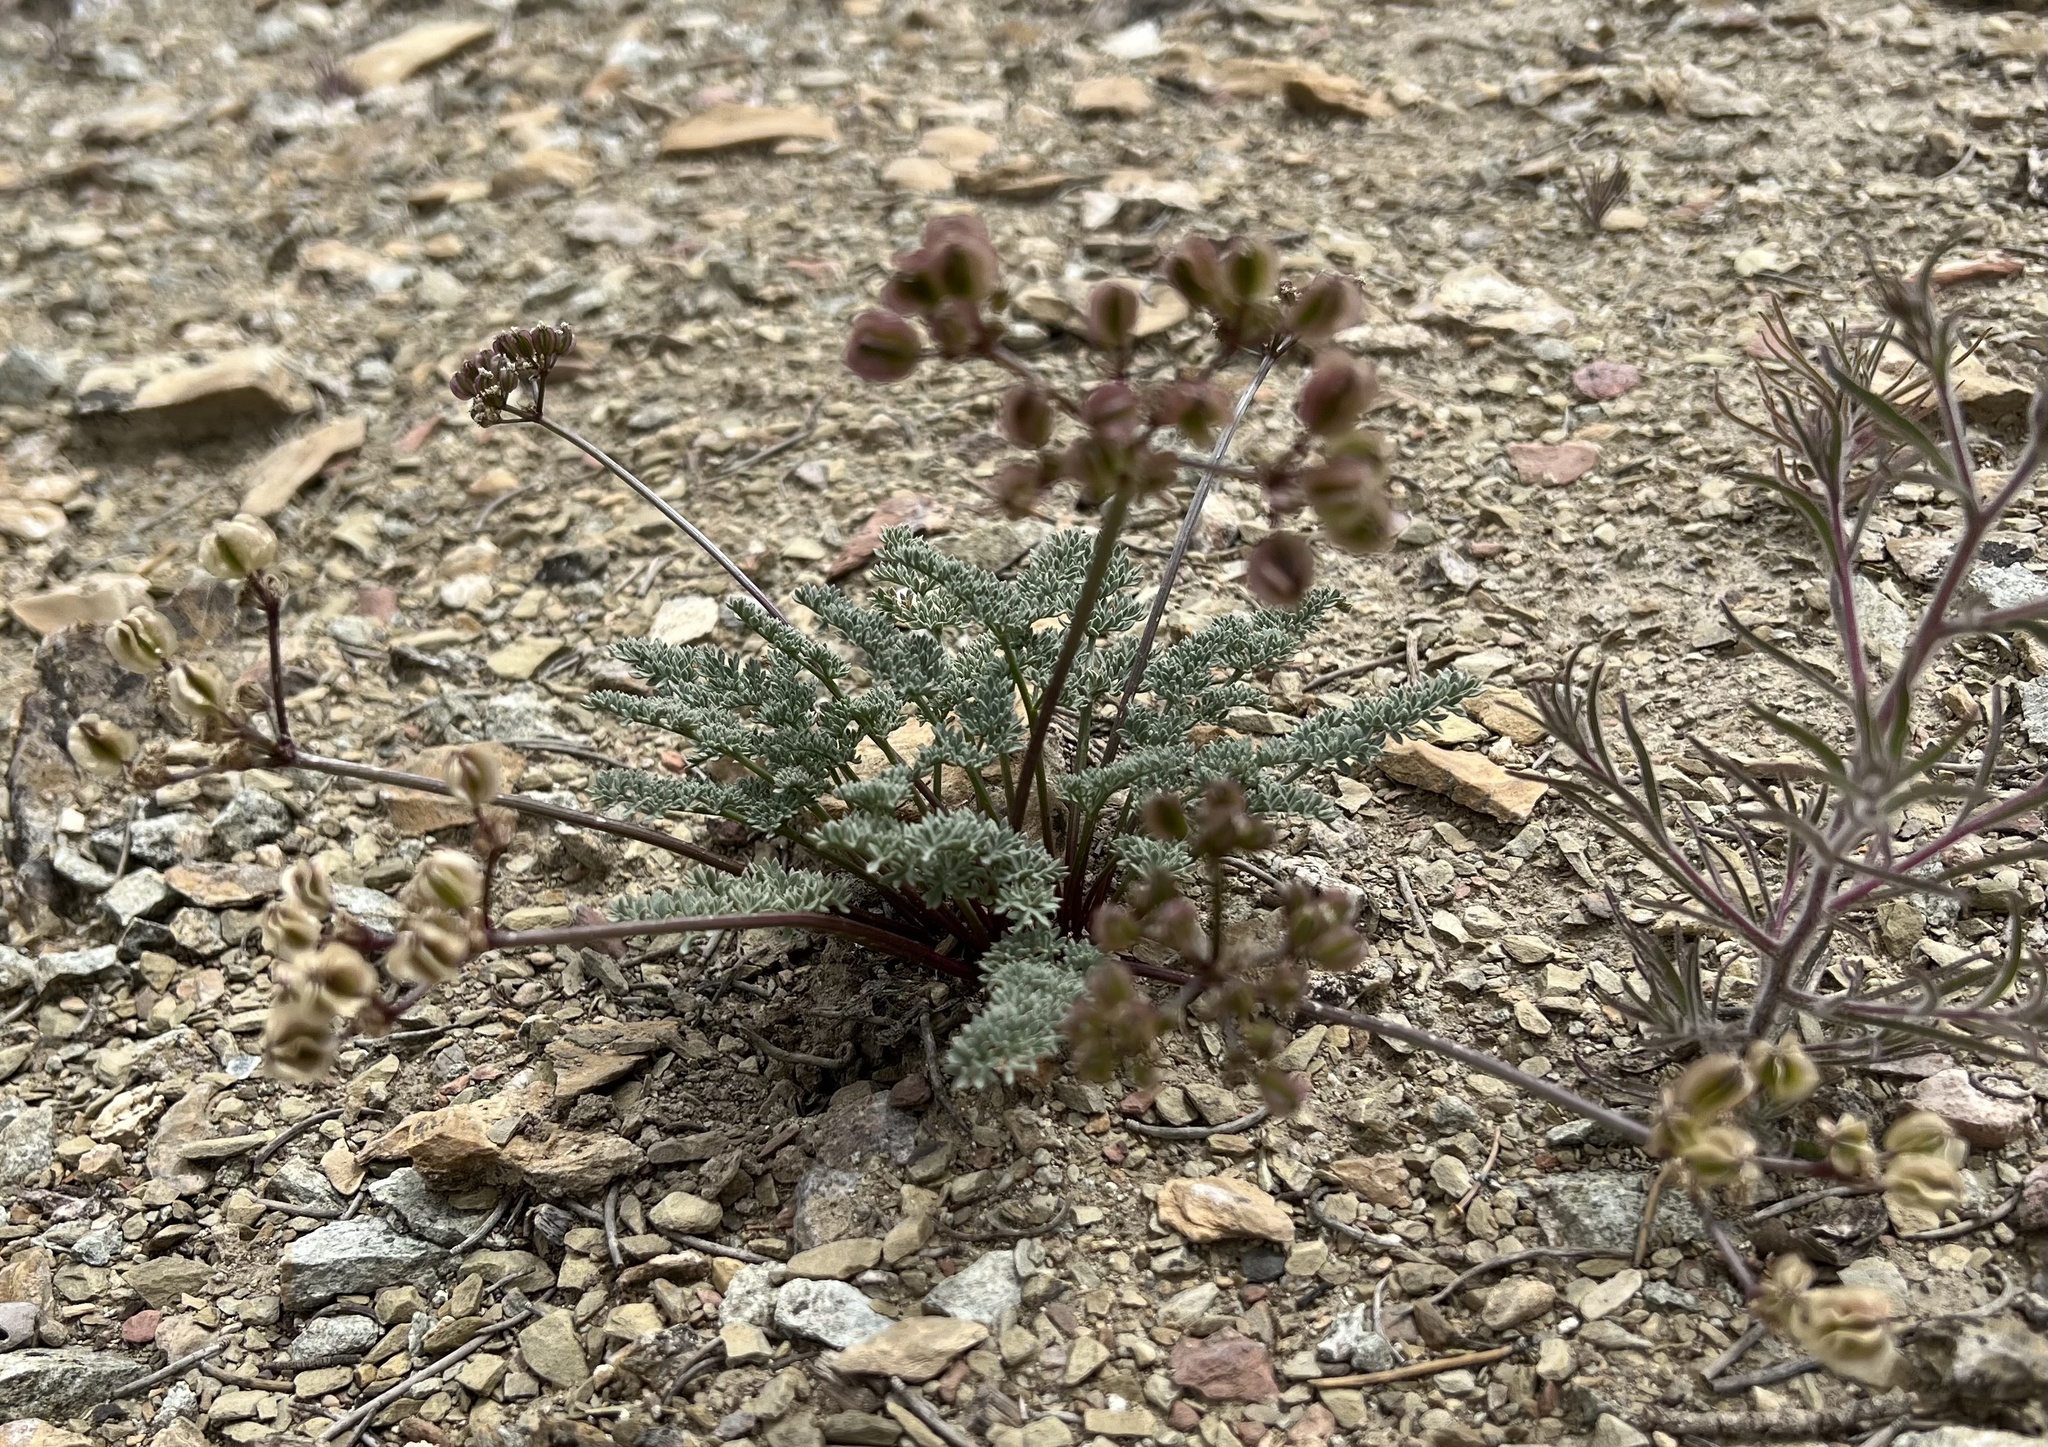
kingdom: Plantae
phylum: Tracheophyta
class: Magnoliopsida
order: Apiales
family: Apiaceae
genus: Aulospermum
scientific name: Aulospermum aboriginum
